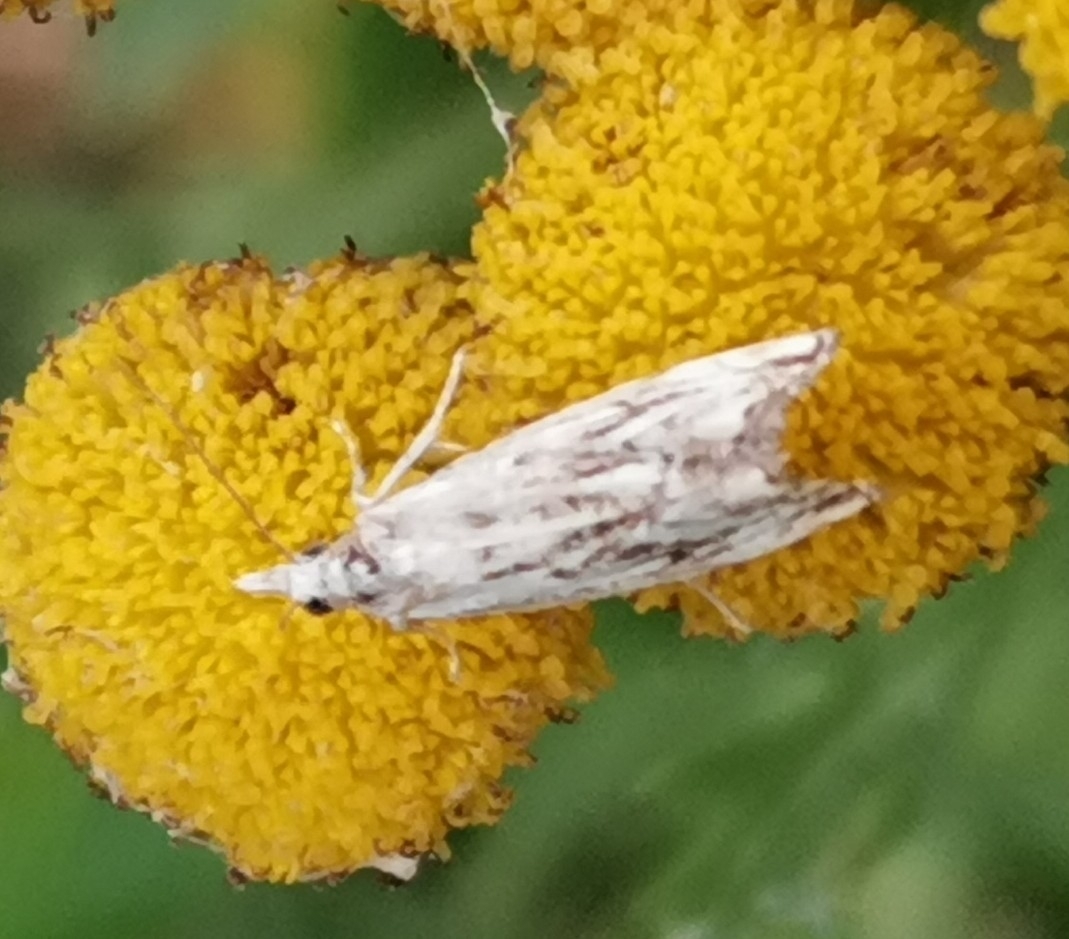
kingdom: Animalia
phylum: Arthropoda
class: Insecta
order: Lepidoptera
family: Crambidae
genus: Catoptria
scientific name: Catoptria falsella
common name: Chequered grass-veneer
